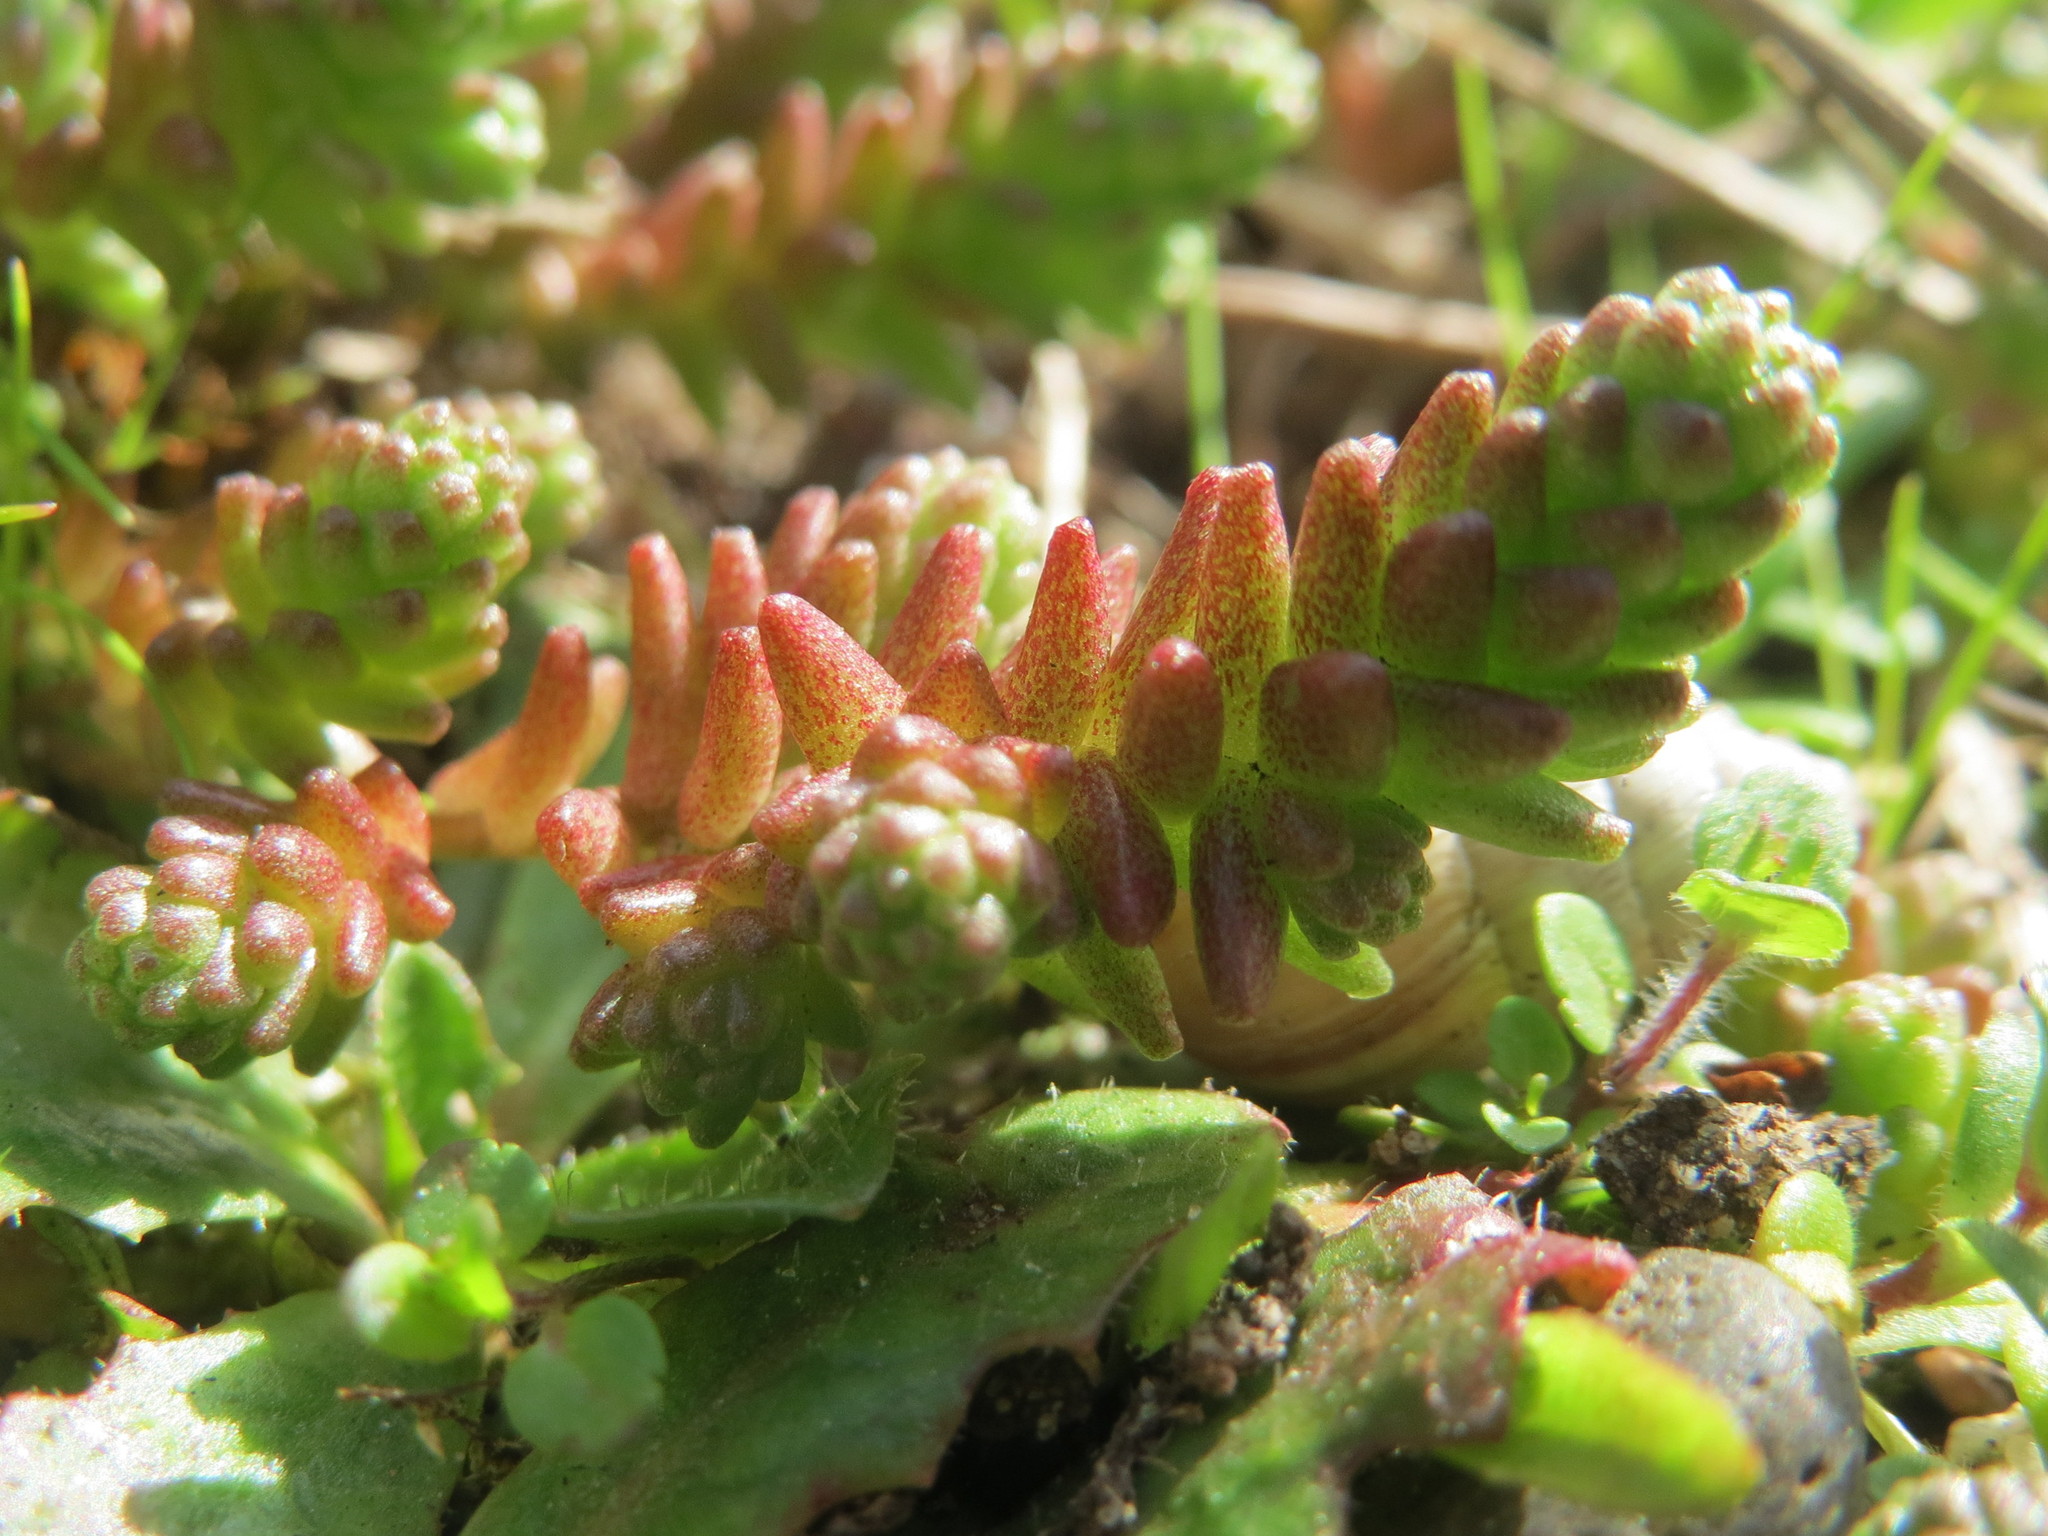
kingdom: Plantae
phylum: Tracheophyta
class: Magnoliopsida
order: Saxifragales
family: Crassulaceae
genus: Sedum
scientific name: Sedum acre
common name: Biting stonecrop
